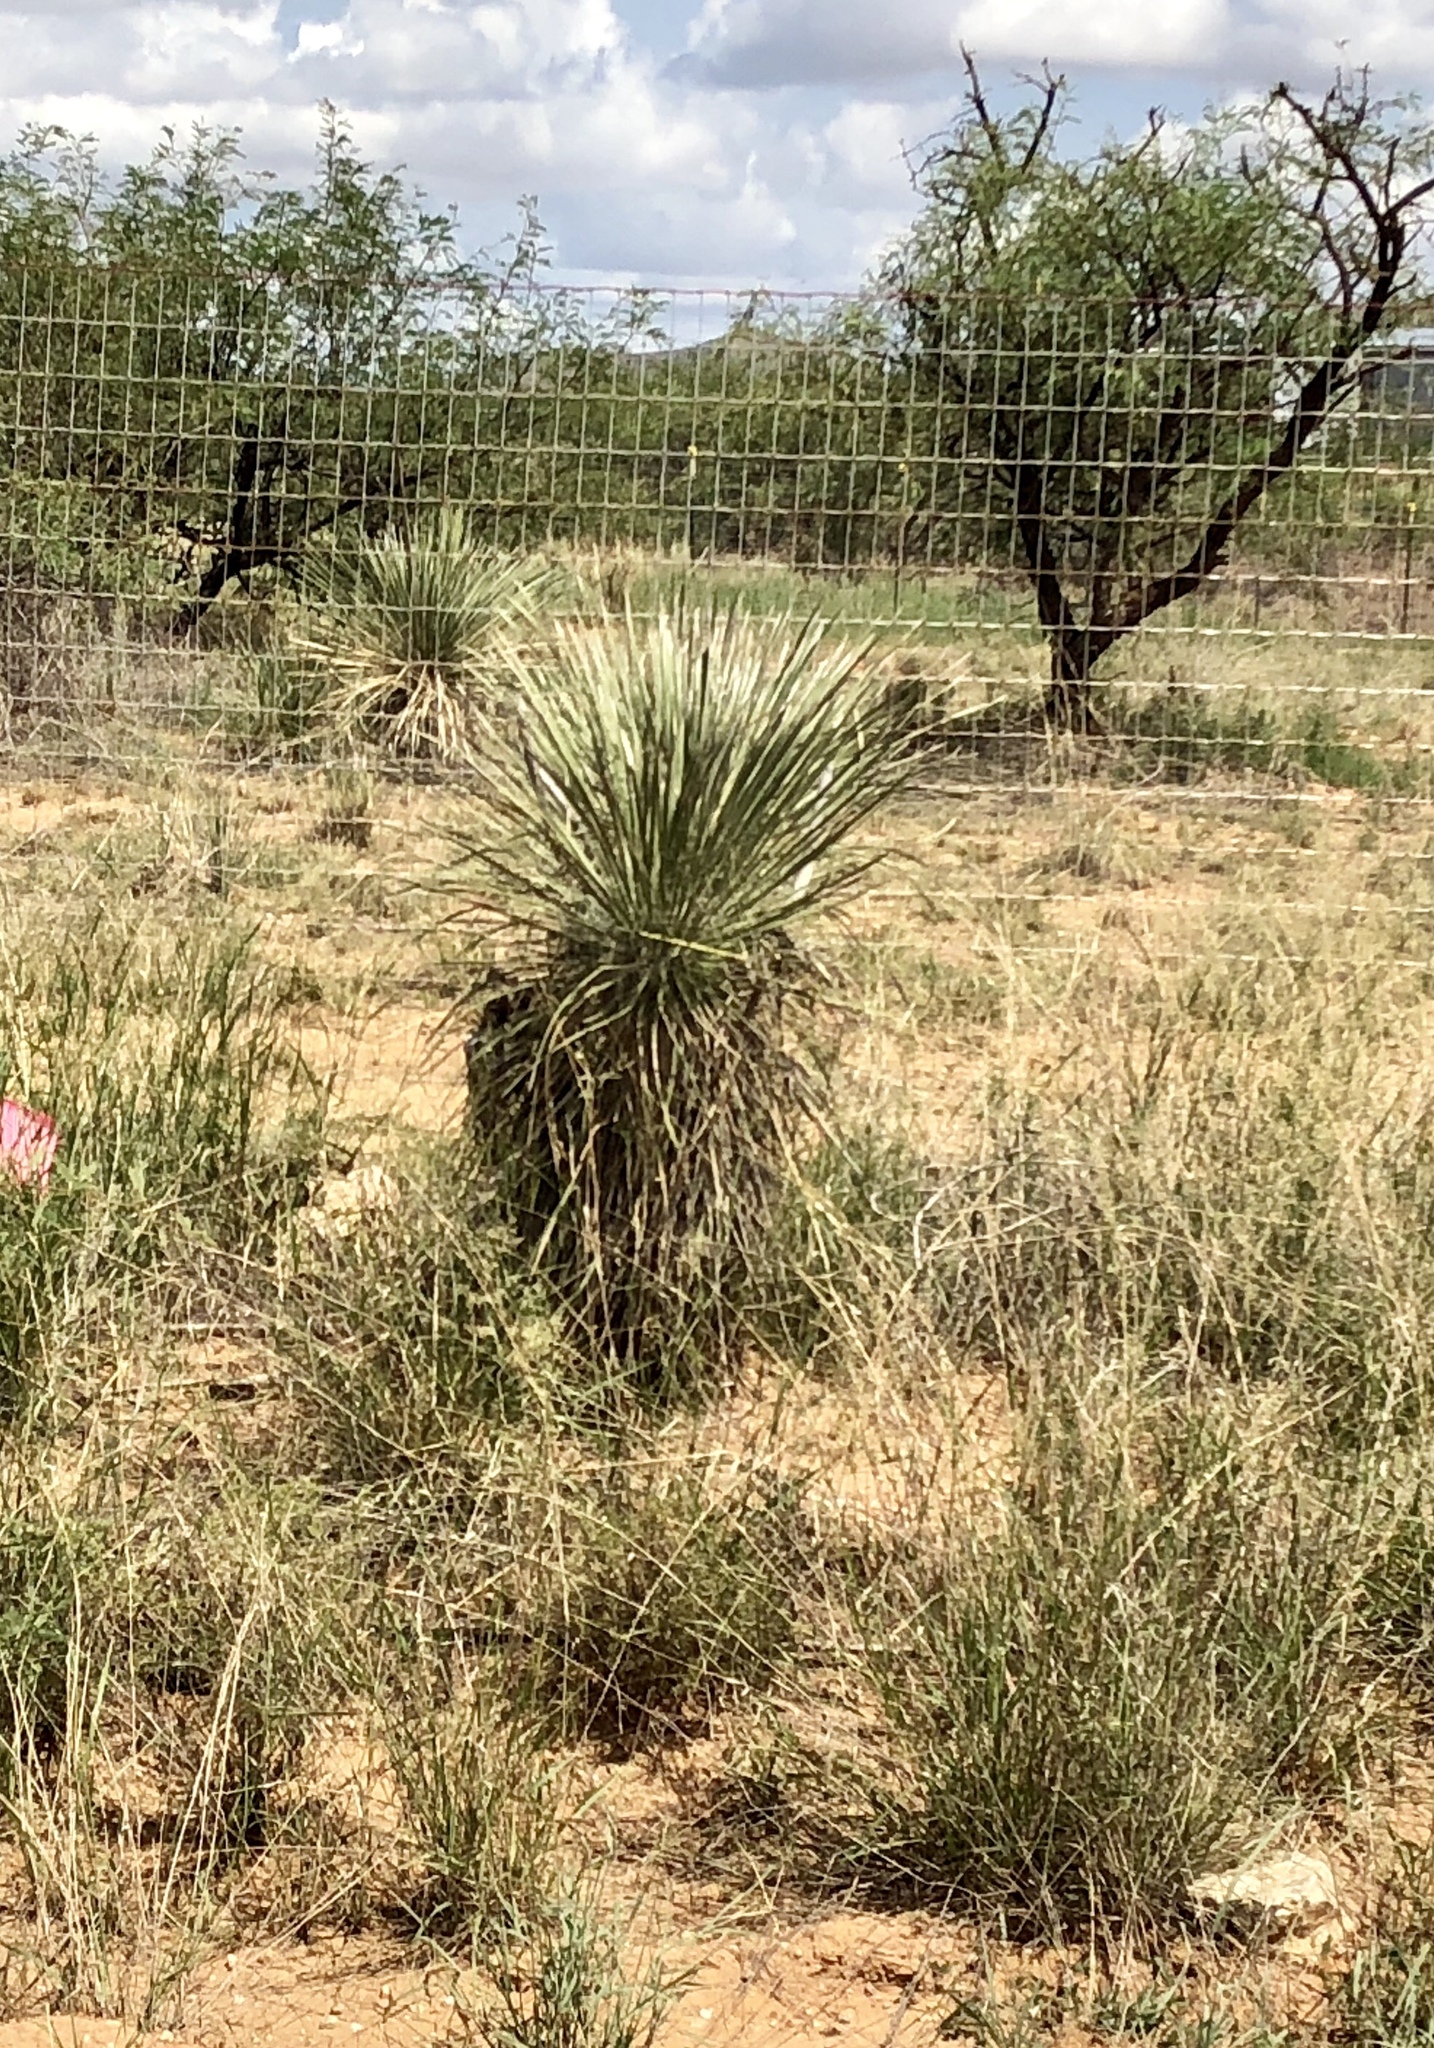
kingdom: Plantae
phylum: Tracheophyta
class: Liliopsida
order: Asparagales
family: Asparagaceae
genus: Yucca
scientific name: Yucca elata
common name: Palmella
